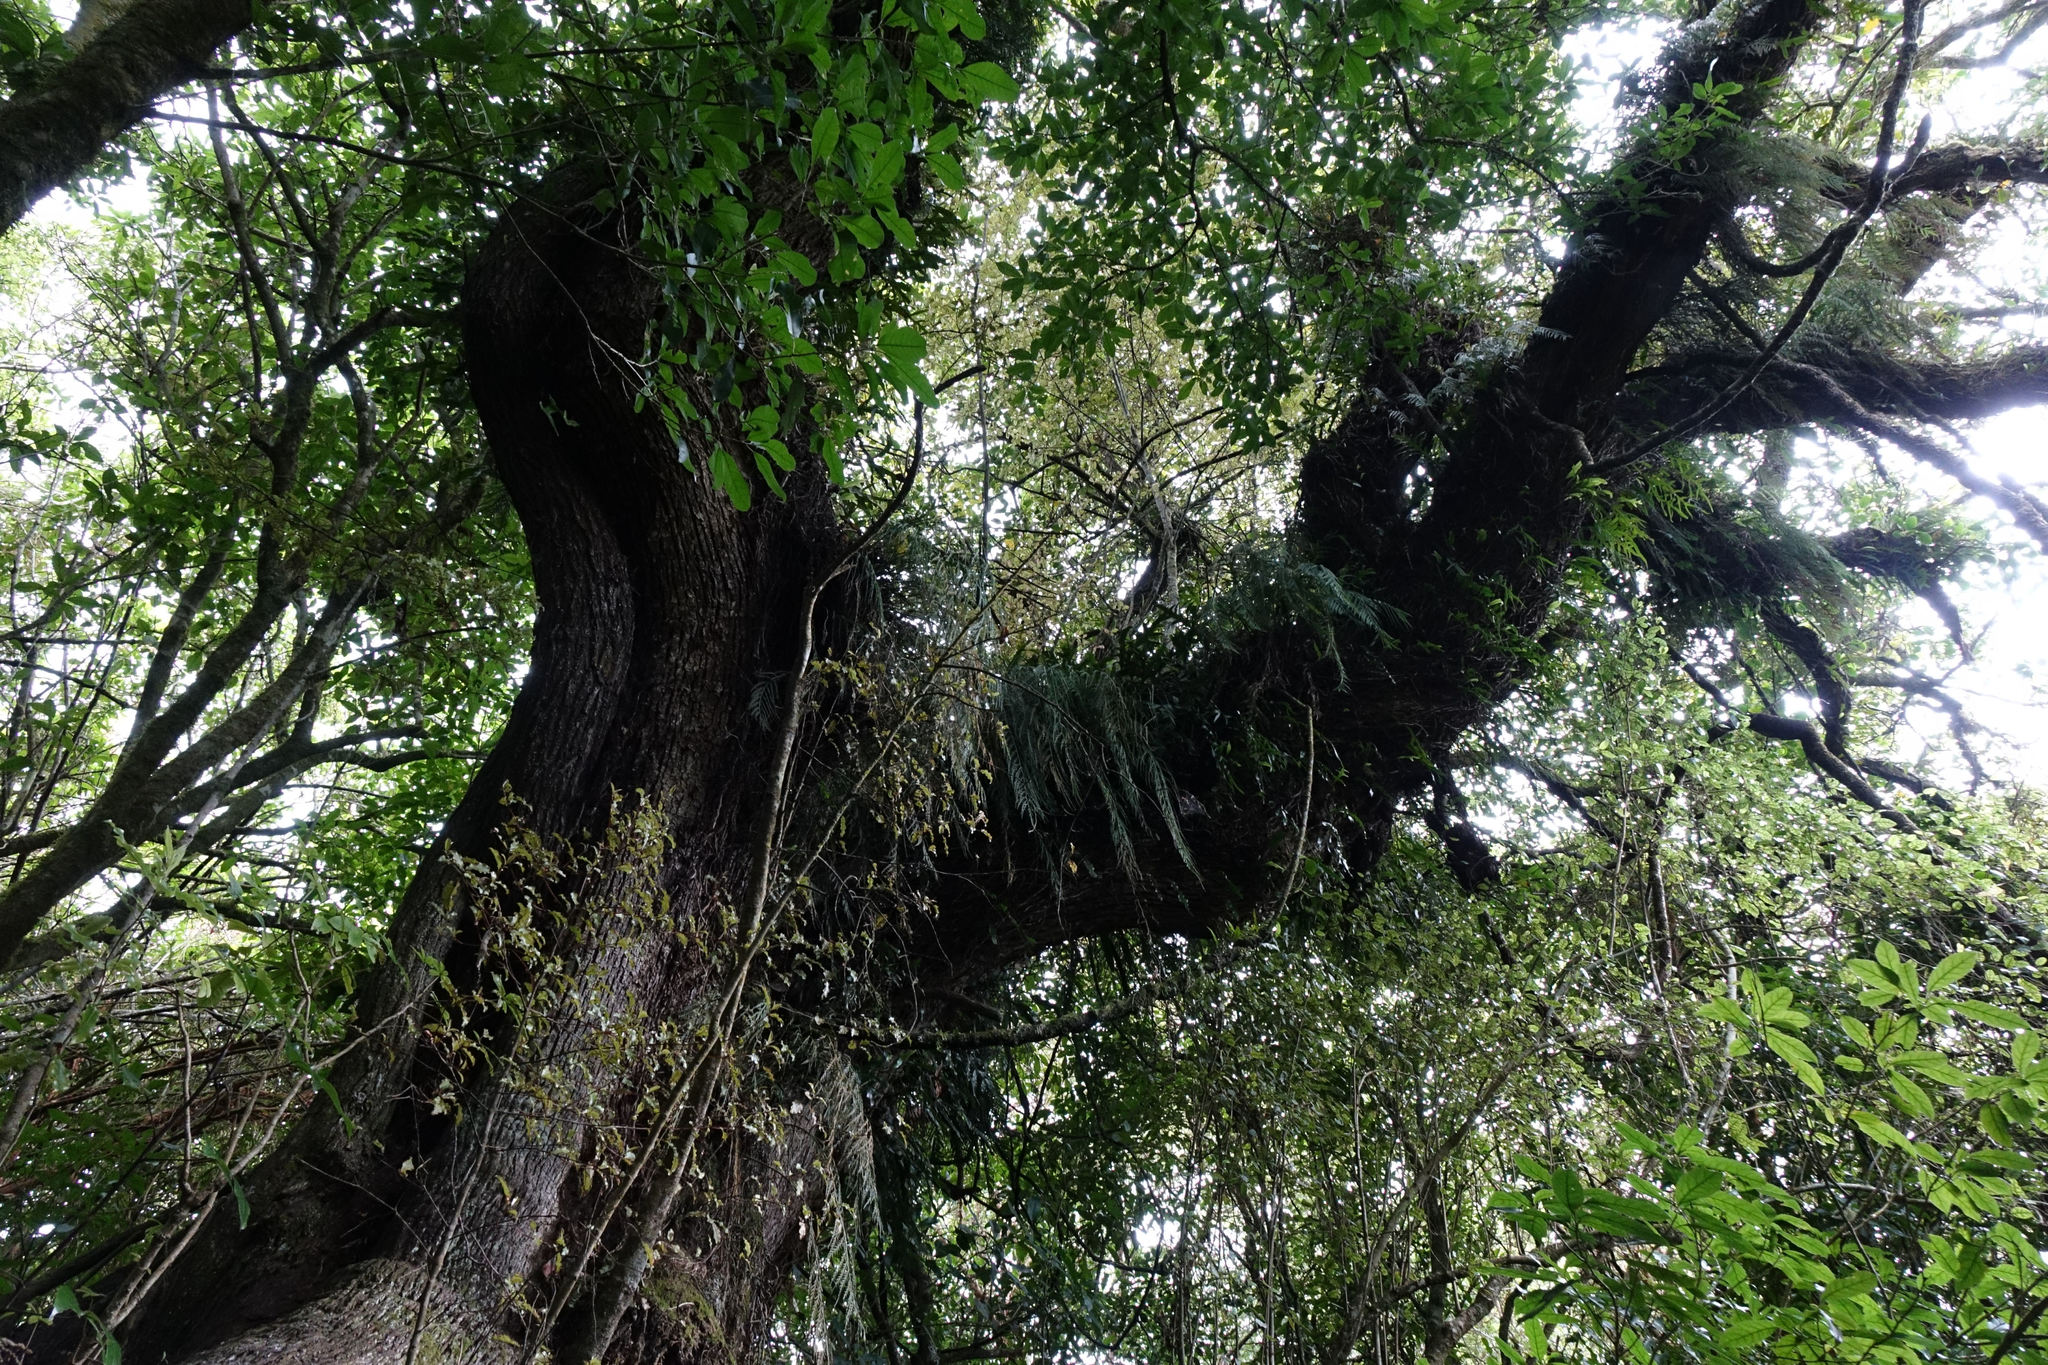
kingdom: Plantae
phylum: Tracheophyta
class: Magnoliopsida
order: Apiales
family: Griseliniaceae
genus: Griselinia
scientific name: Griselinia littoralis
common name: New zealand broadleaf
